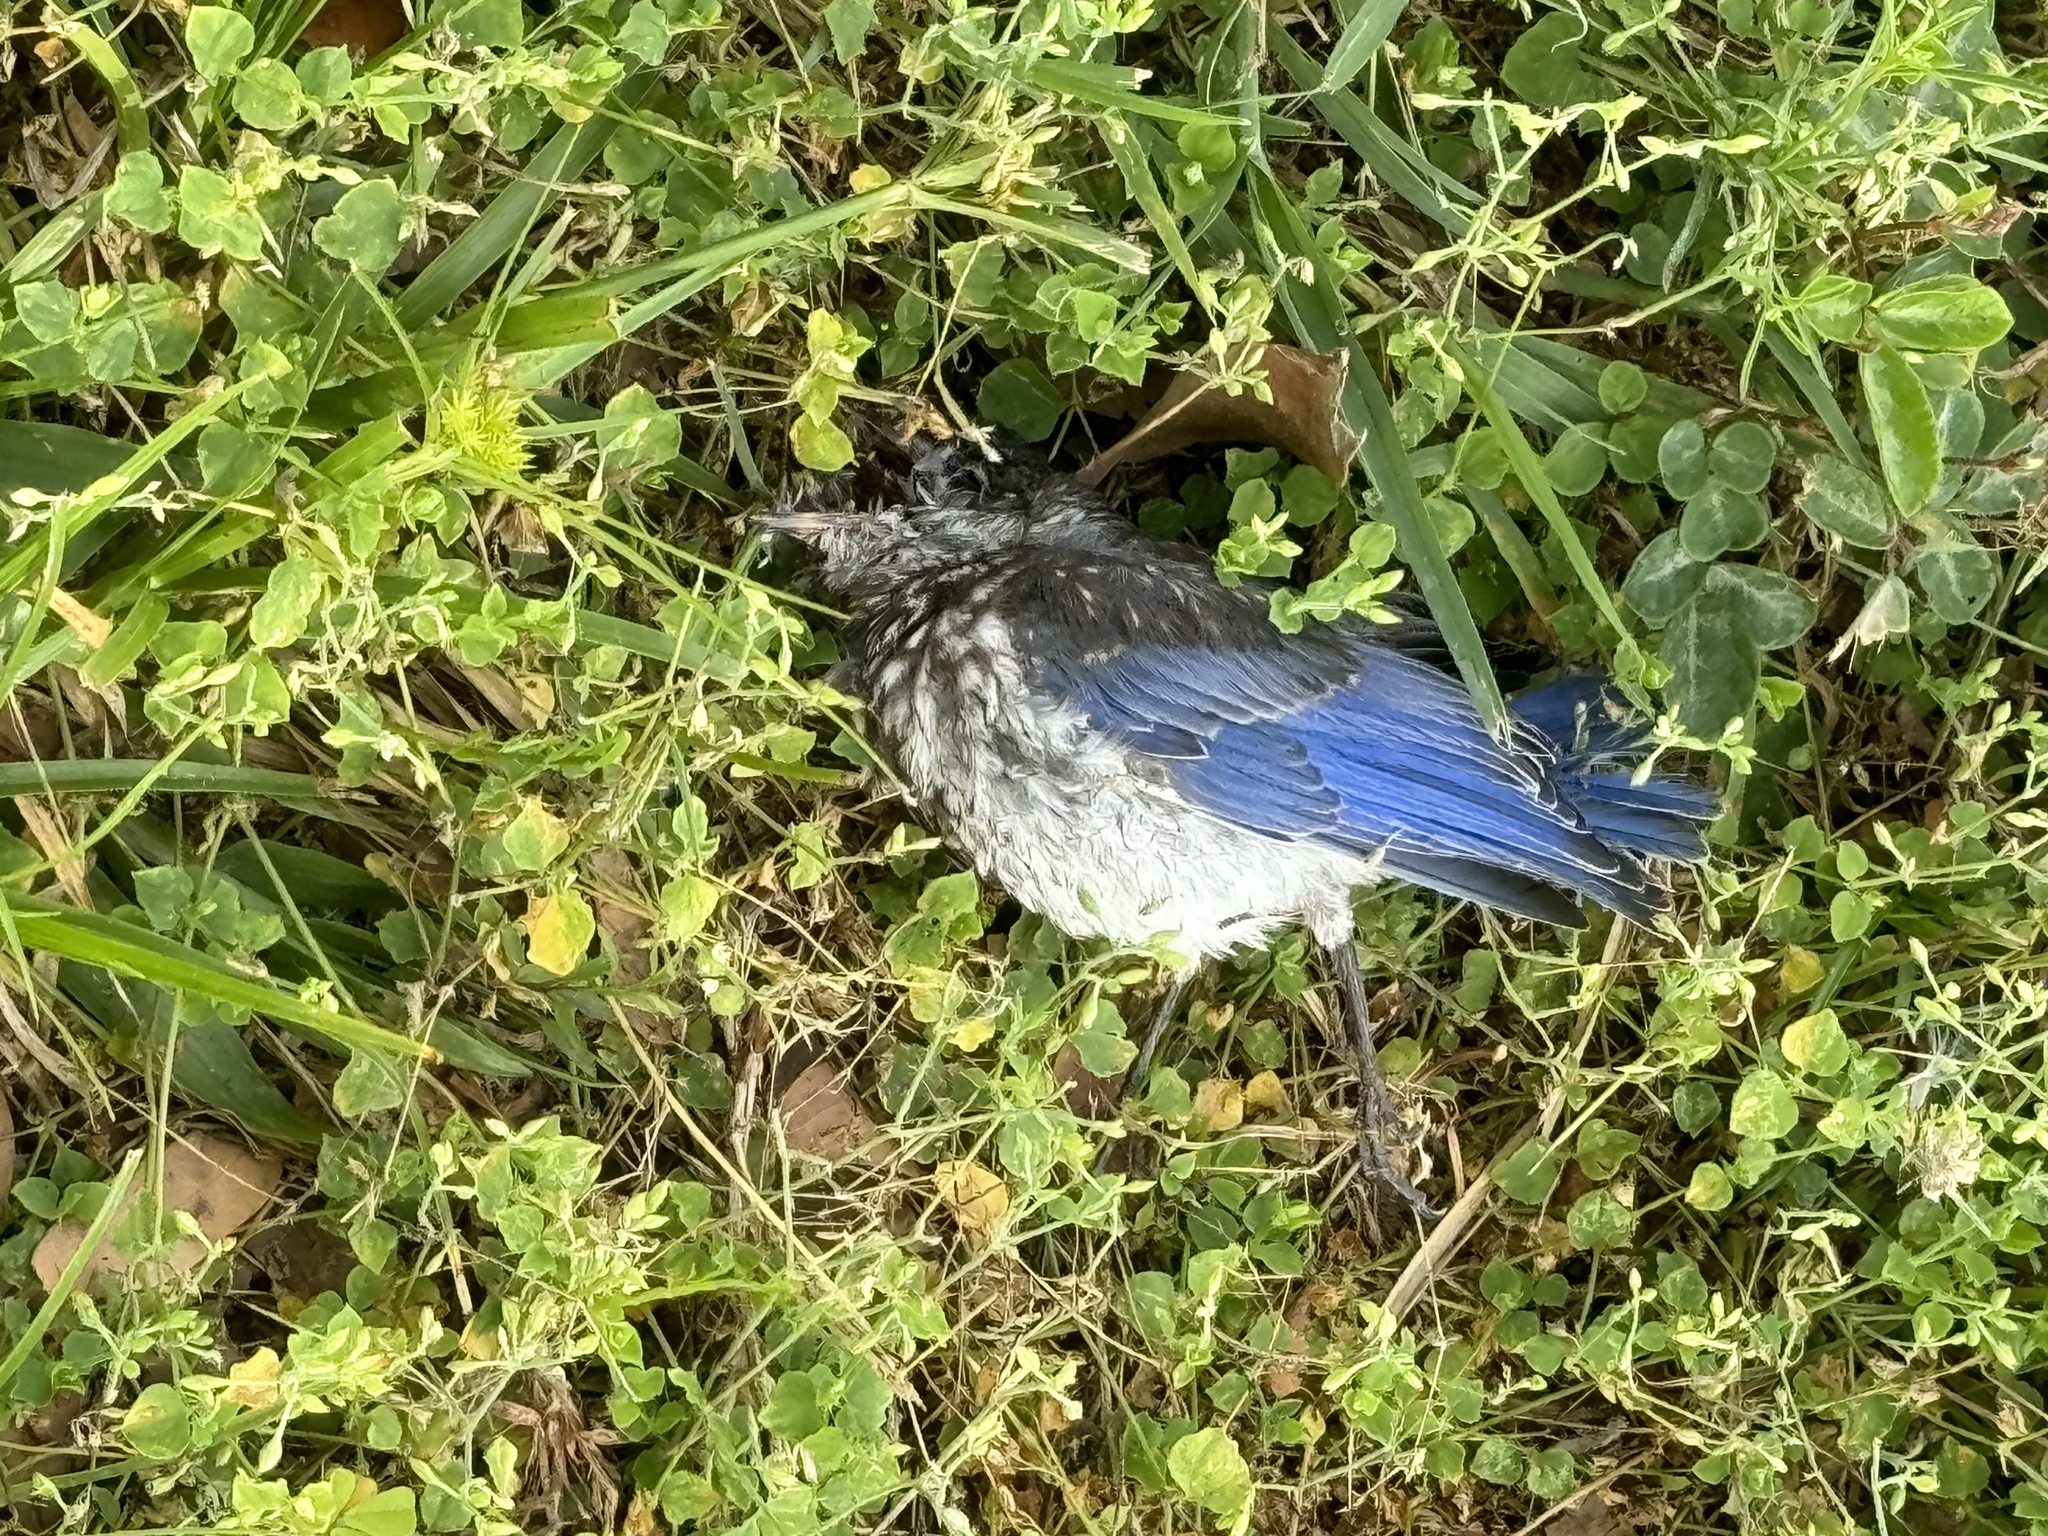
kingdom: Animalia
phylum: Chordata
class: Aves
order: Passeriformes
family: Turdidae
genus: Sialia
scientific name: Sialia sialis
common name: Eastern bluebird
